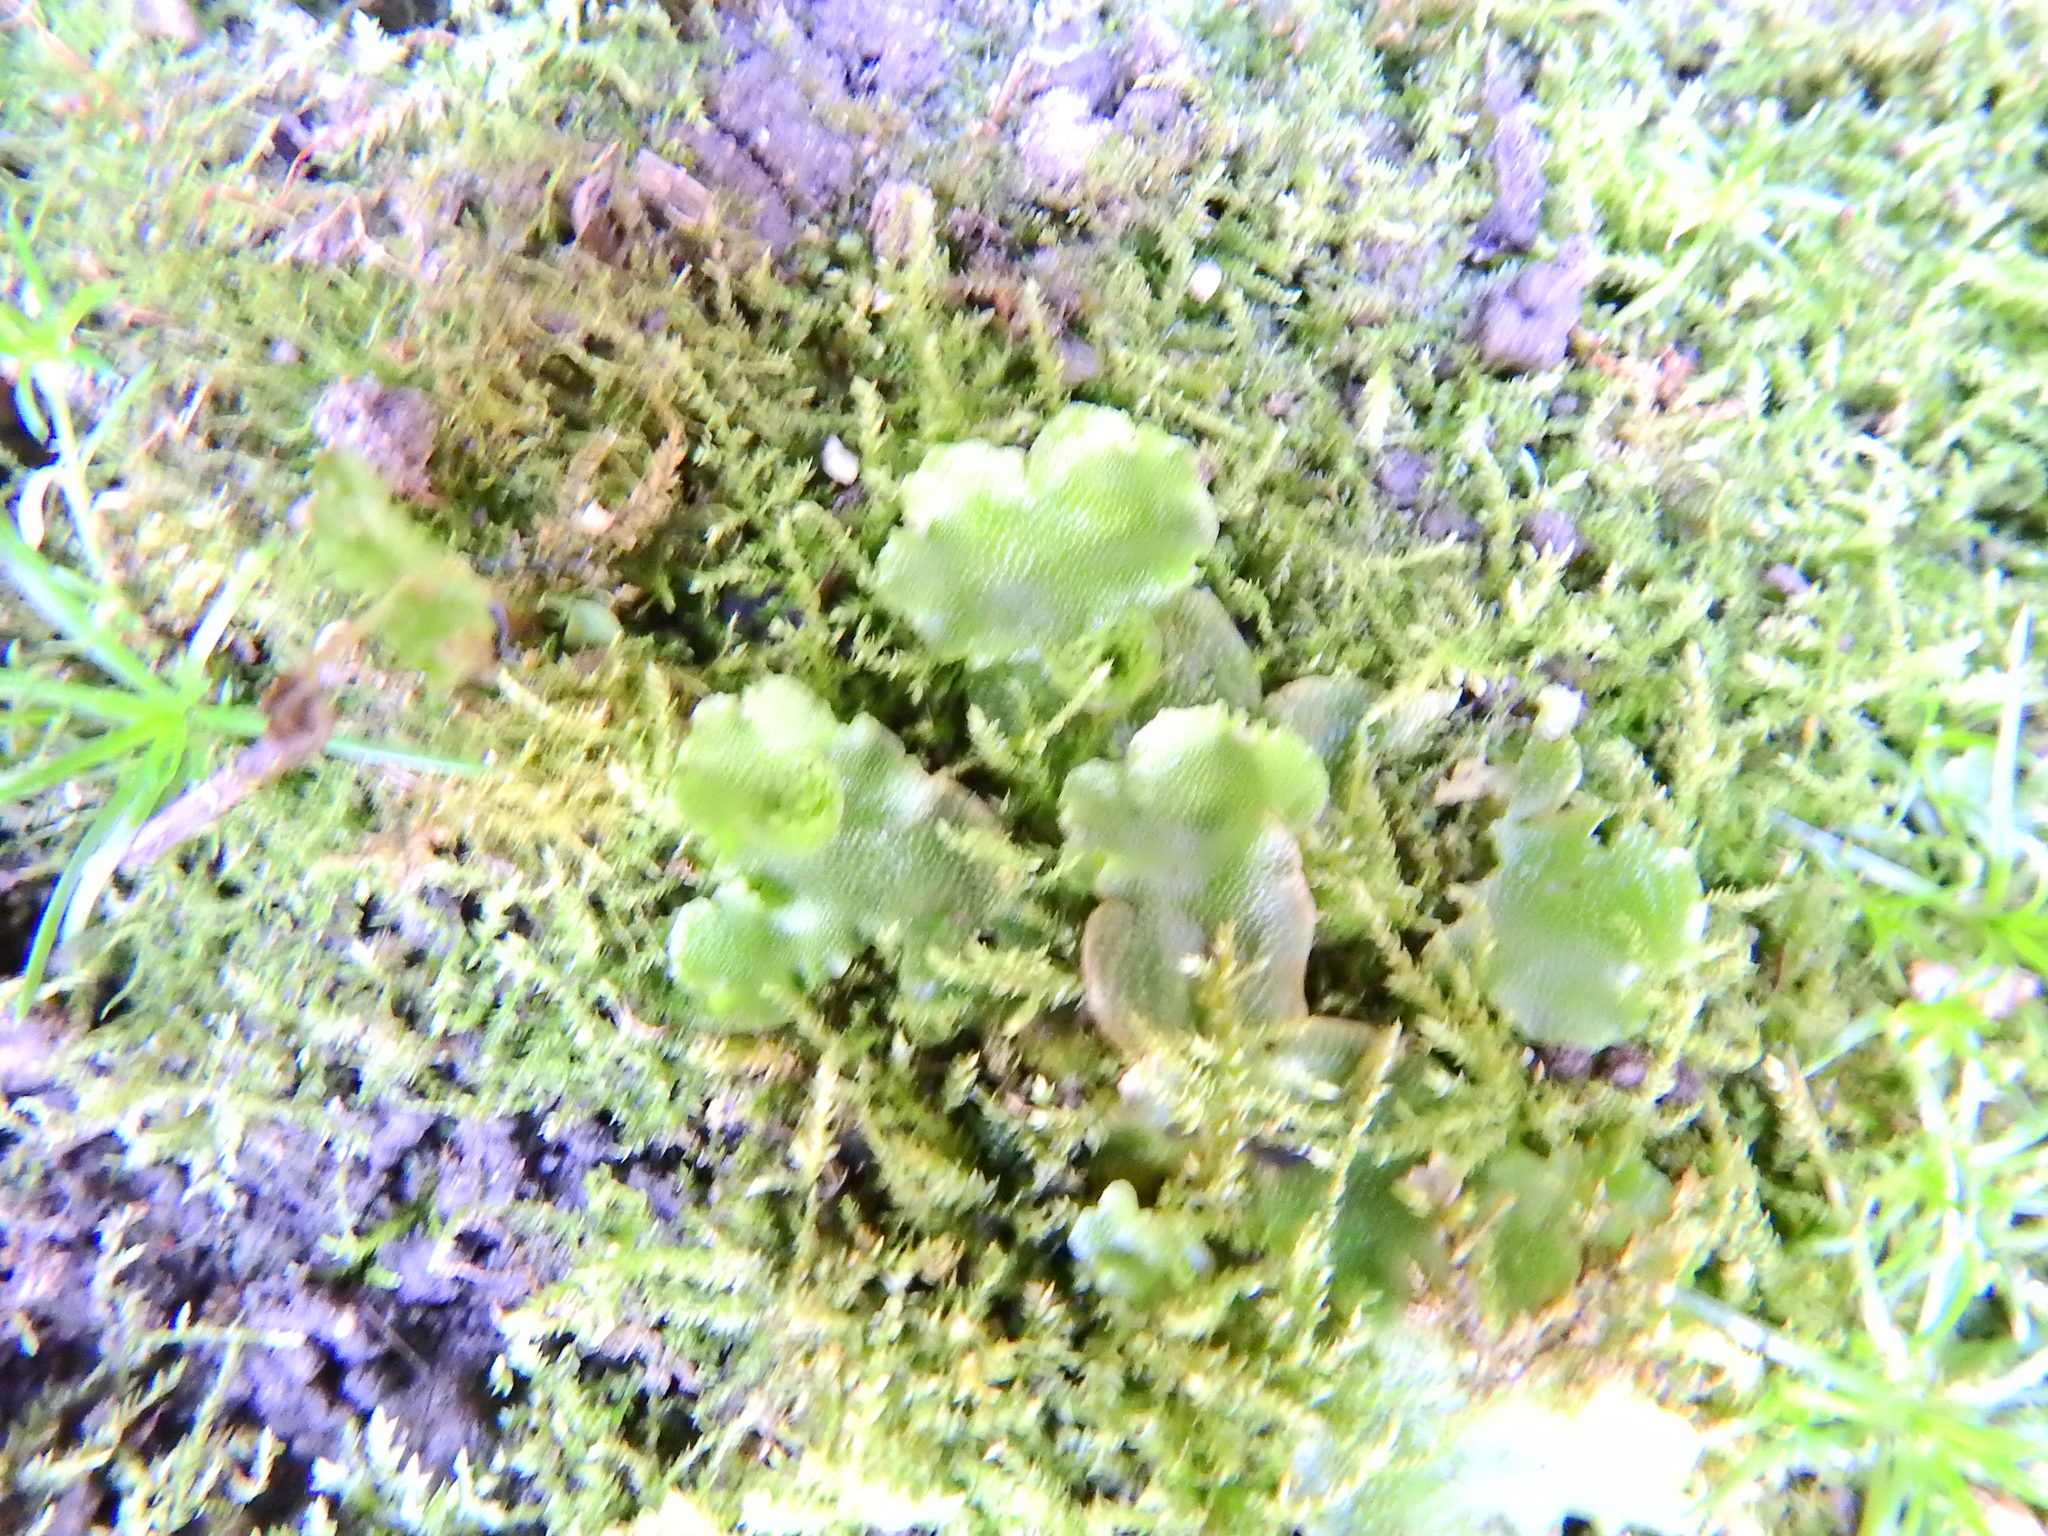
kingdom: Plantae
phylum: Marchantiophyta
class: Marchantiopsida
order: Lunulariales
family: Lunulariaceae
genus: Lunularia
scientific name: Lunularia cruciata
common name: Crescent-cup liverwort
